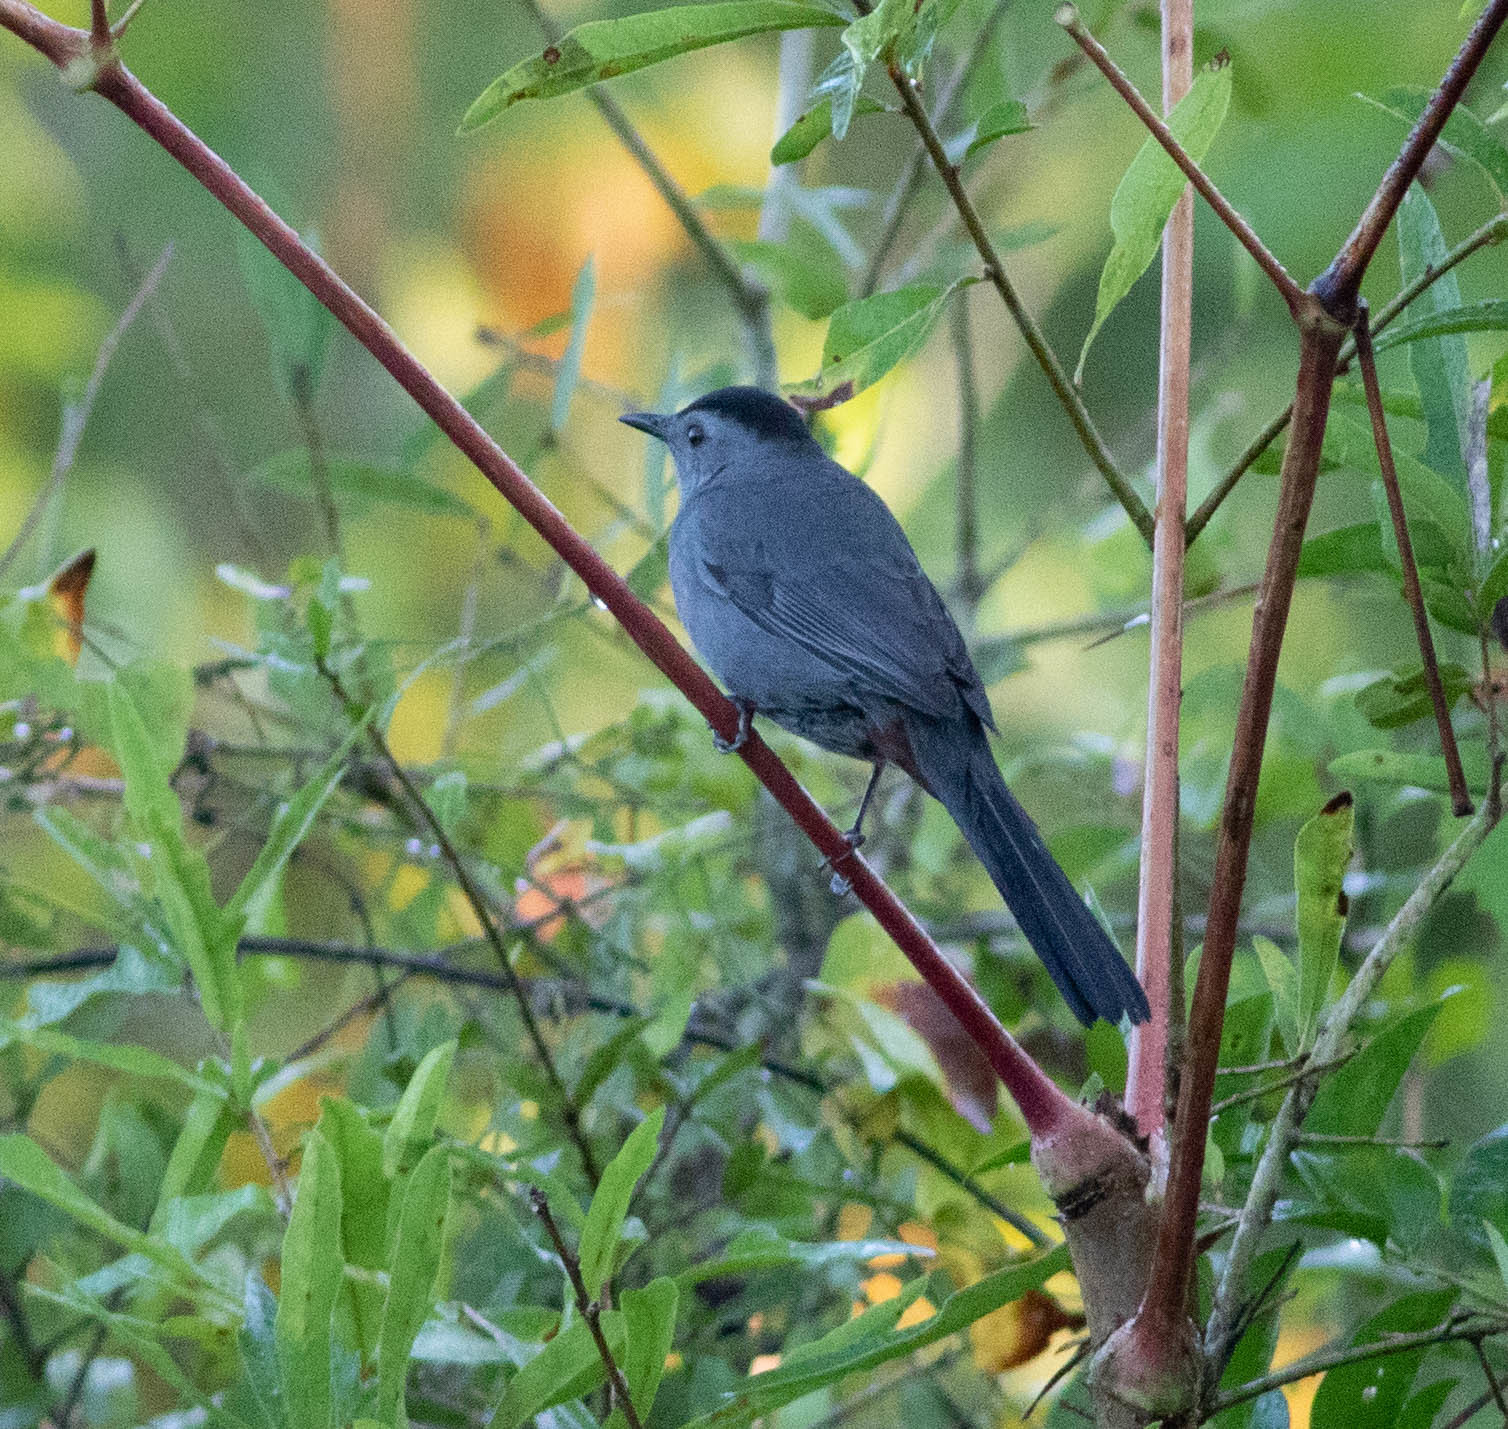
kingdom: Animalia
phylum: Chordata
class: Aves
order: Passeriformes
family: Mimidae
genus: Dumetella
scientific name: Dumetella carolinensis
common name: Gray catbird
